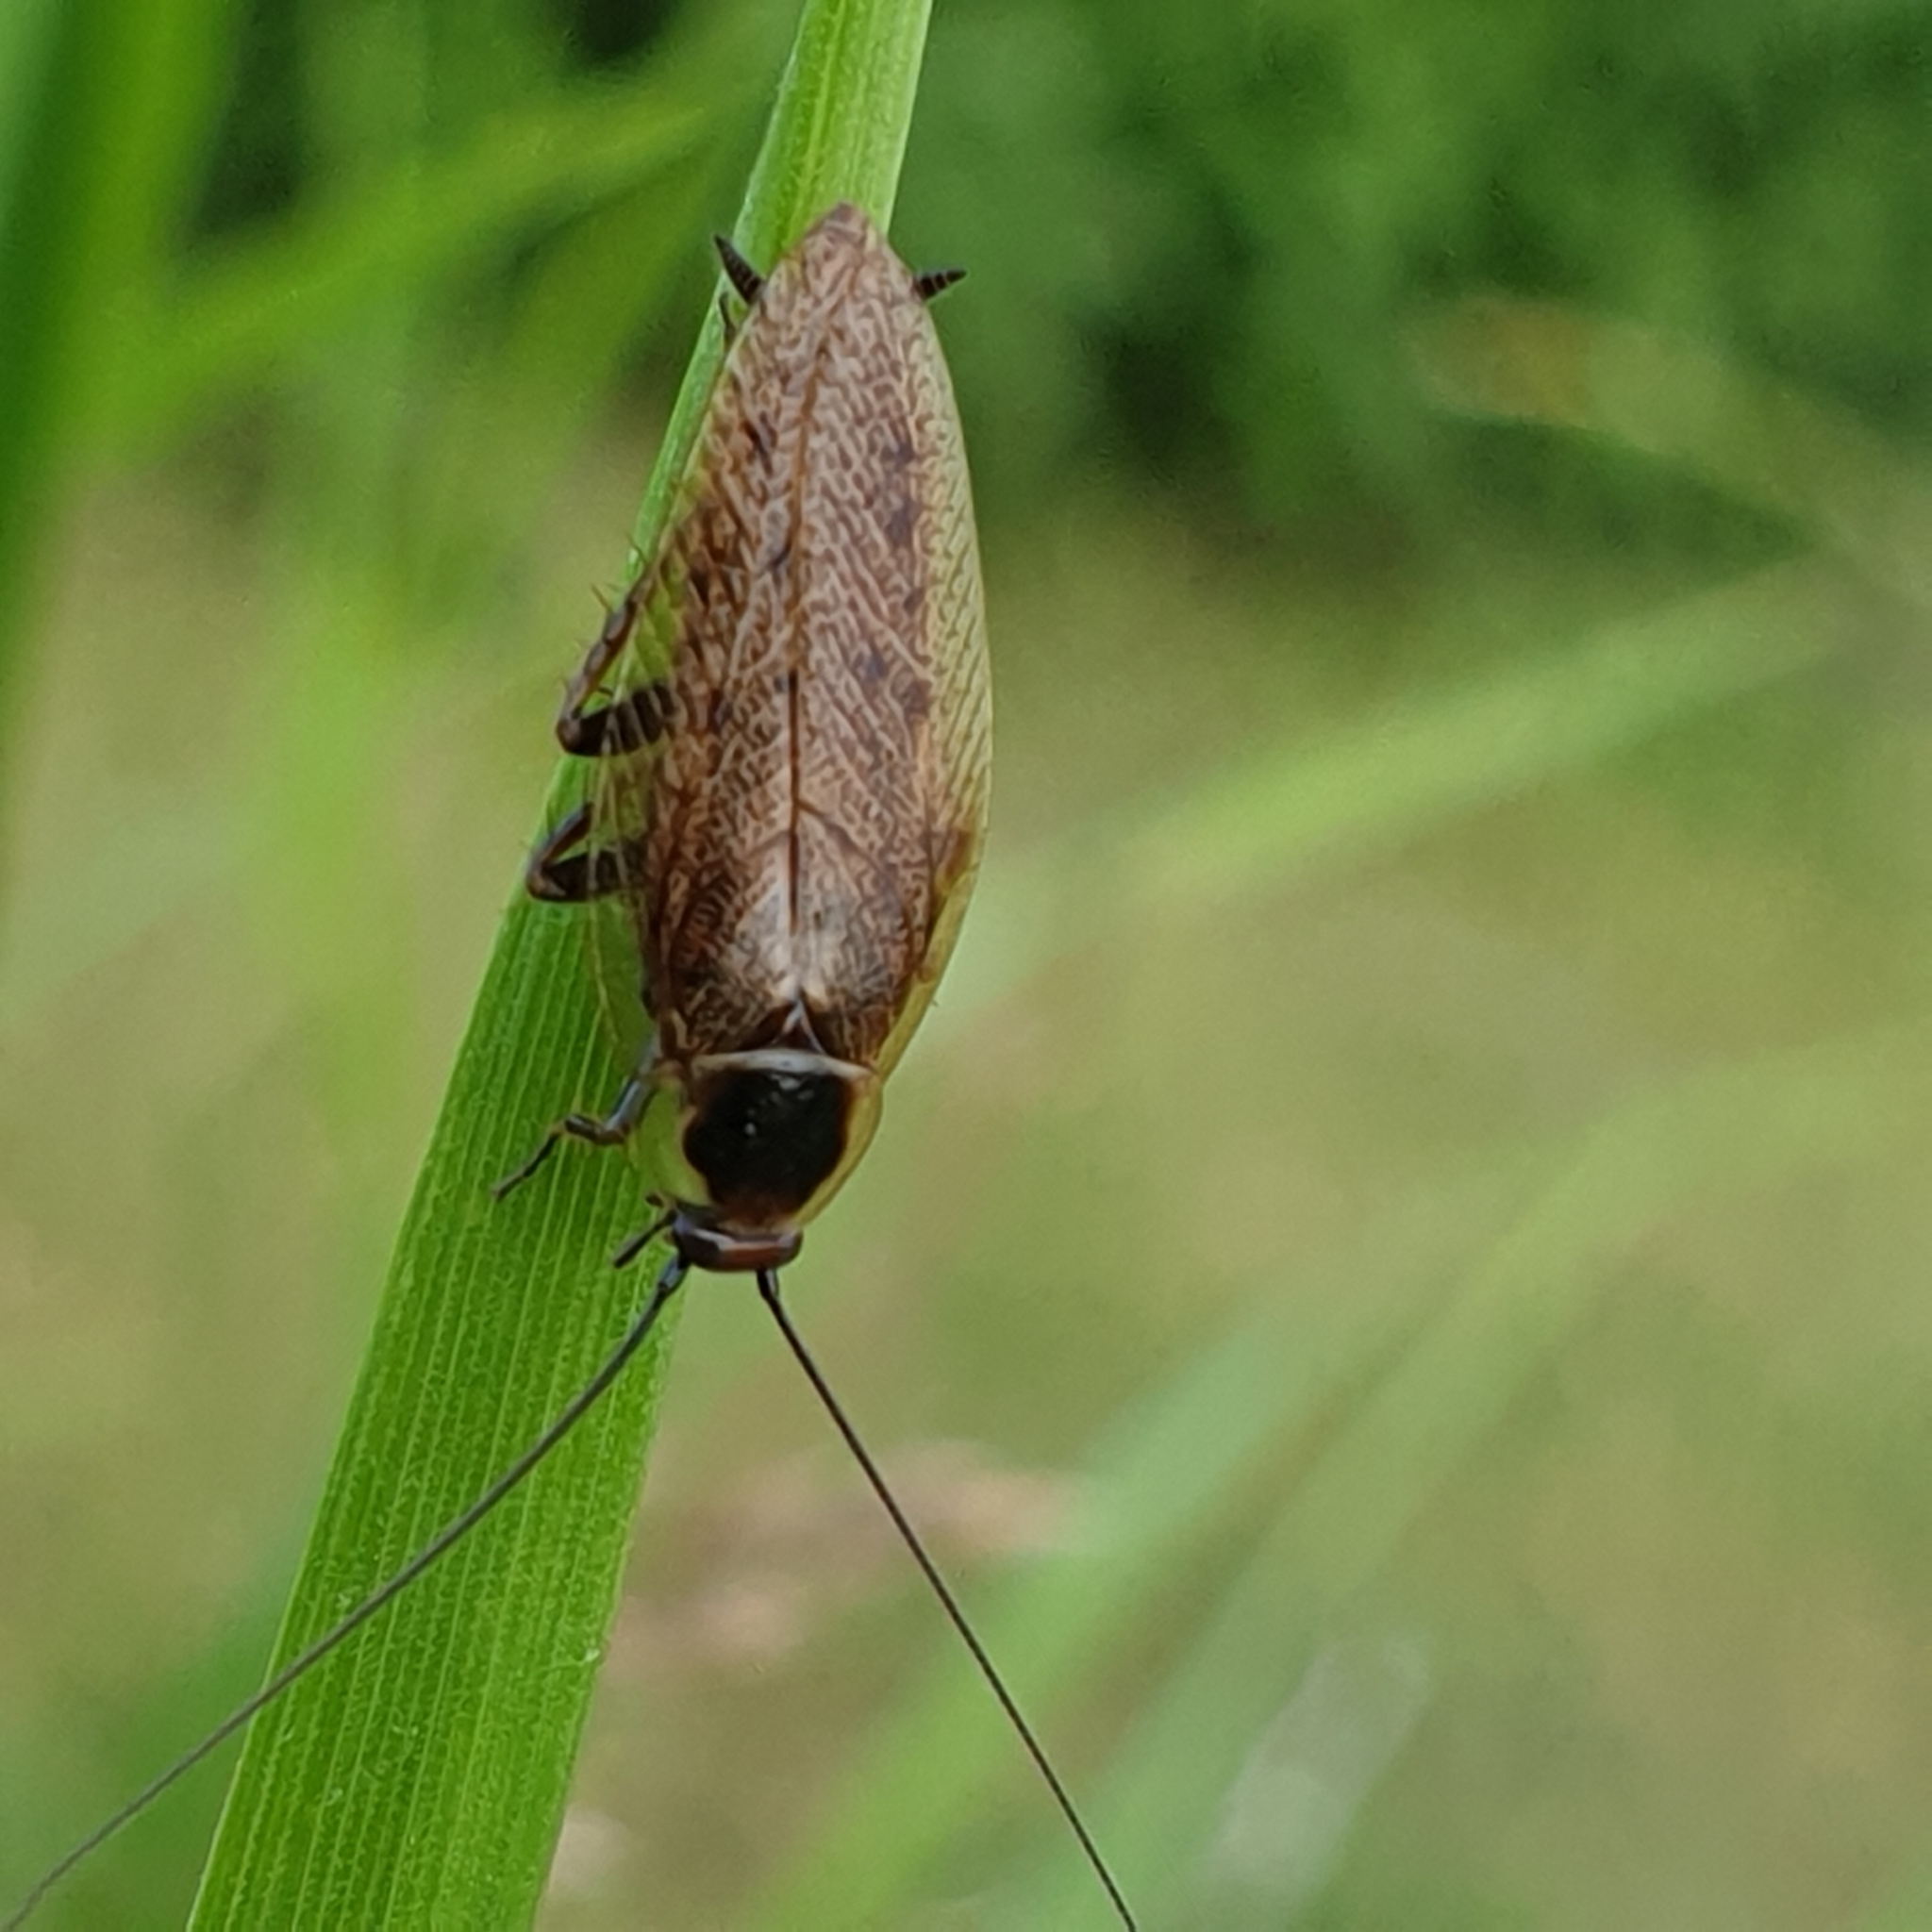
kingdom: Animalia
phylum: Arthropoda
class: Insecta
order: Blattodea
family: Ectobiidae
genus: Ectobius
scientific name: Ectobius lapponicus
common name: Dusky cockroach
